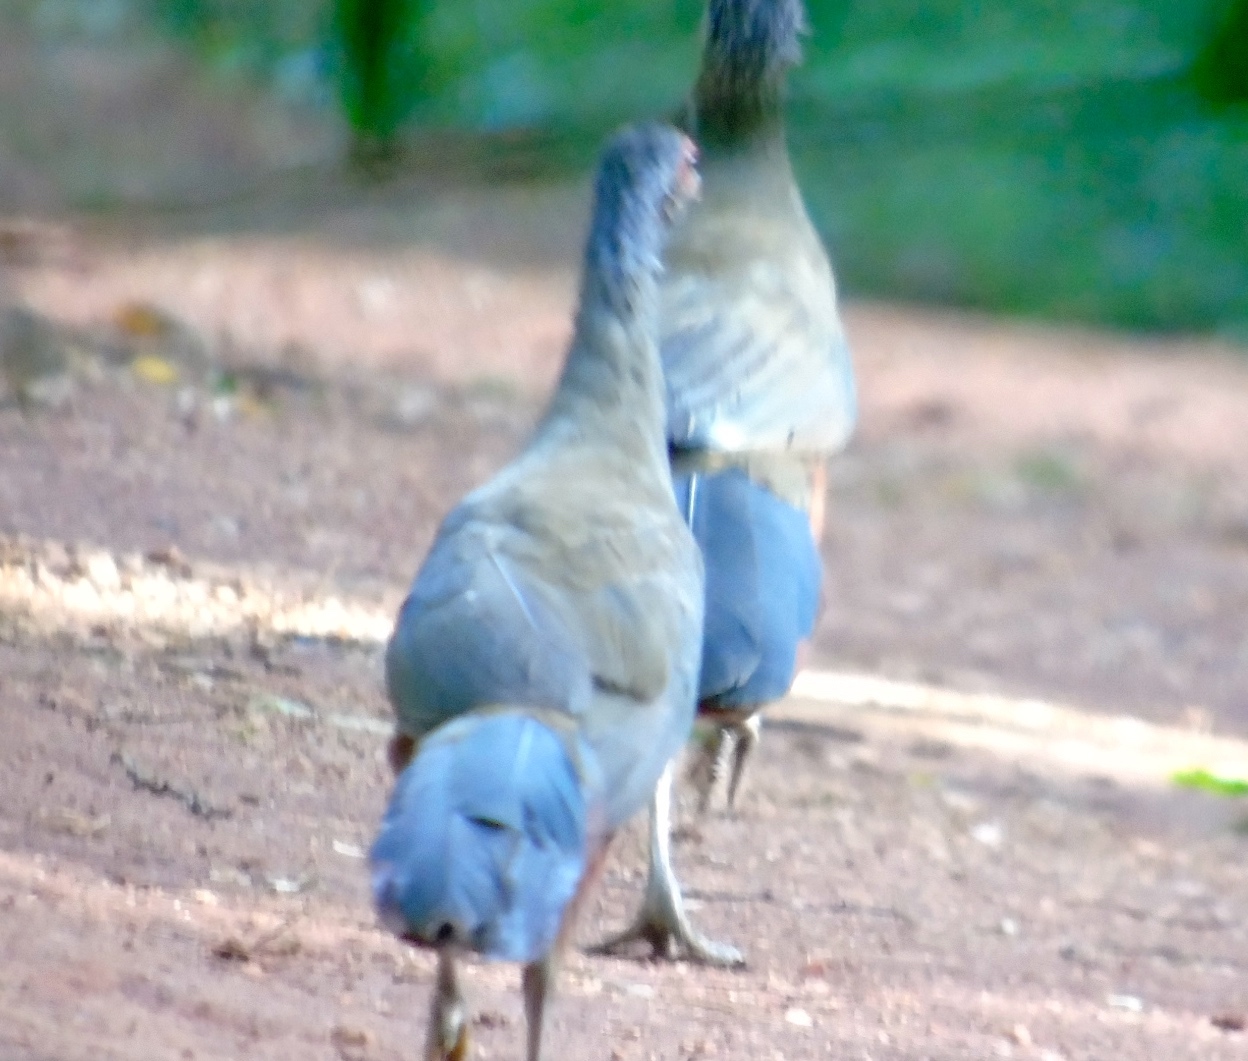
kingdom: Animalia
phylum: Chordata
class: Aves
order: Galliformes
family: Cracidae
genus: Ortalis
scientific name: Ortalis wagleri
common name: Rufous-bellied chachalaca
